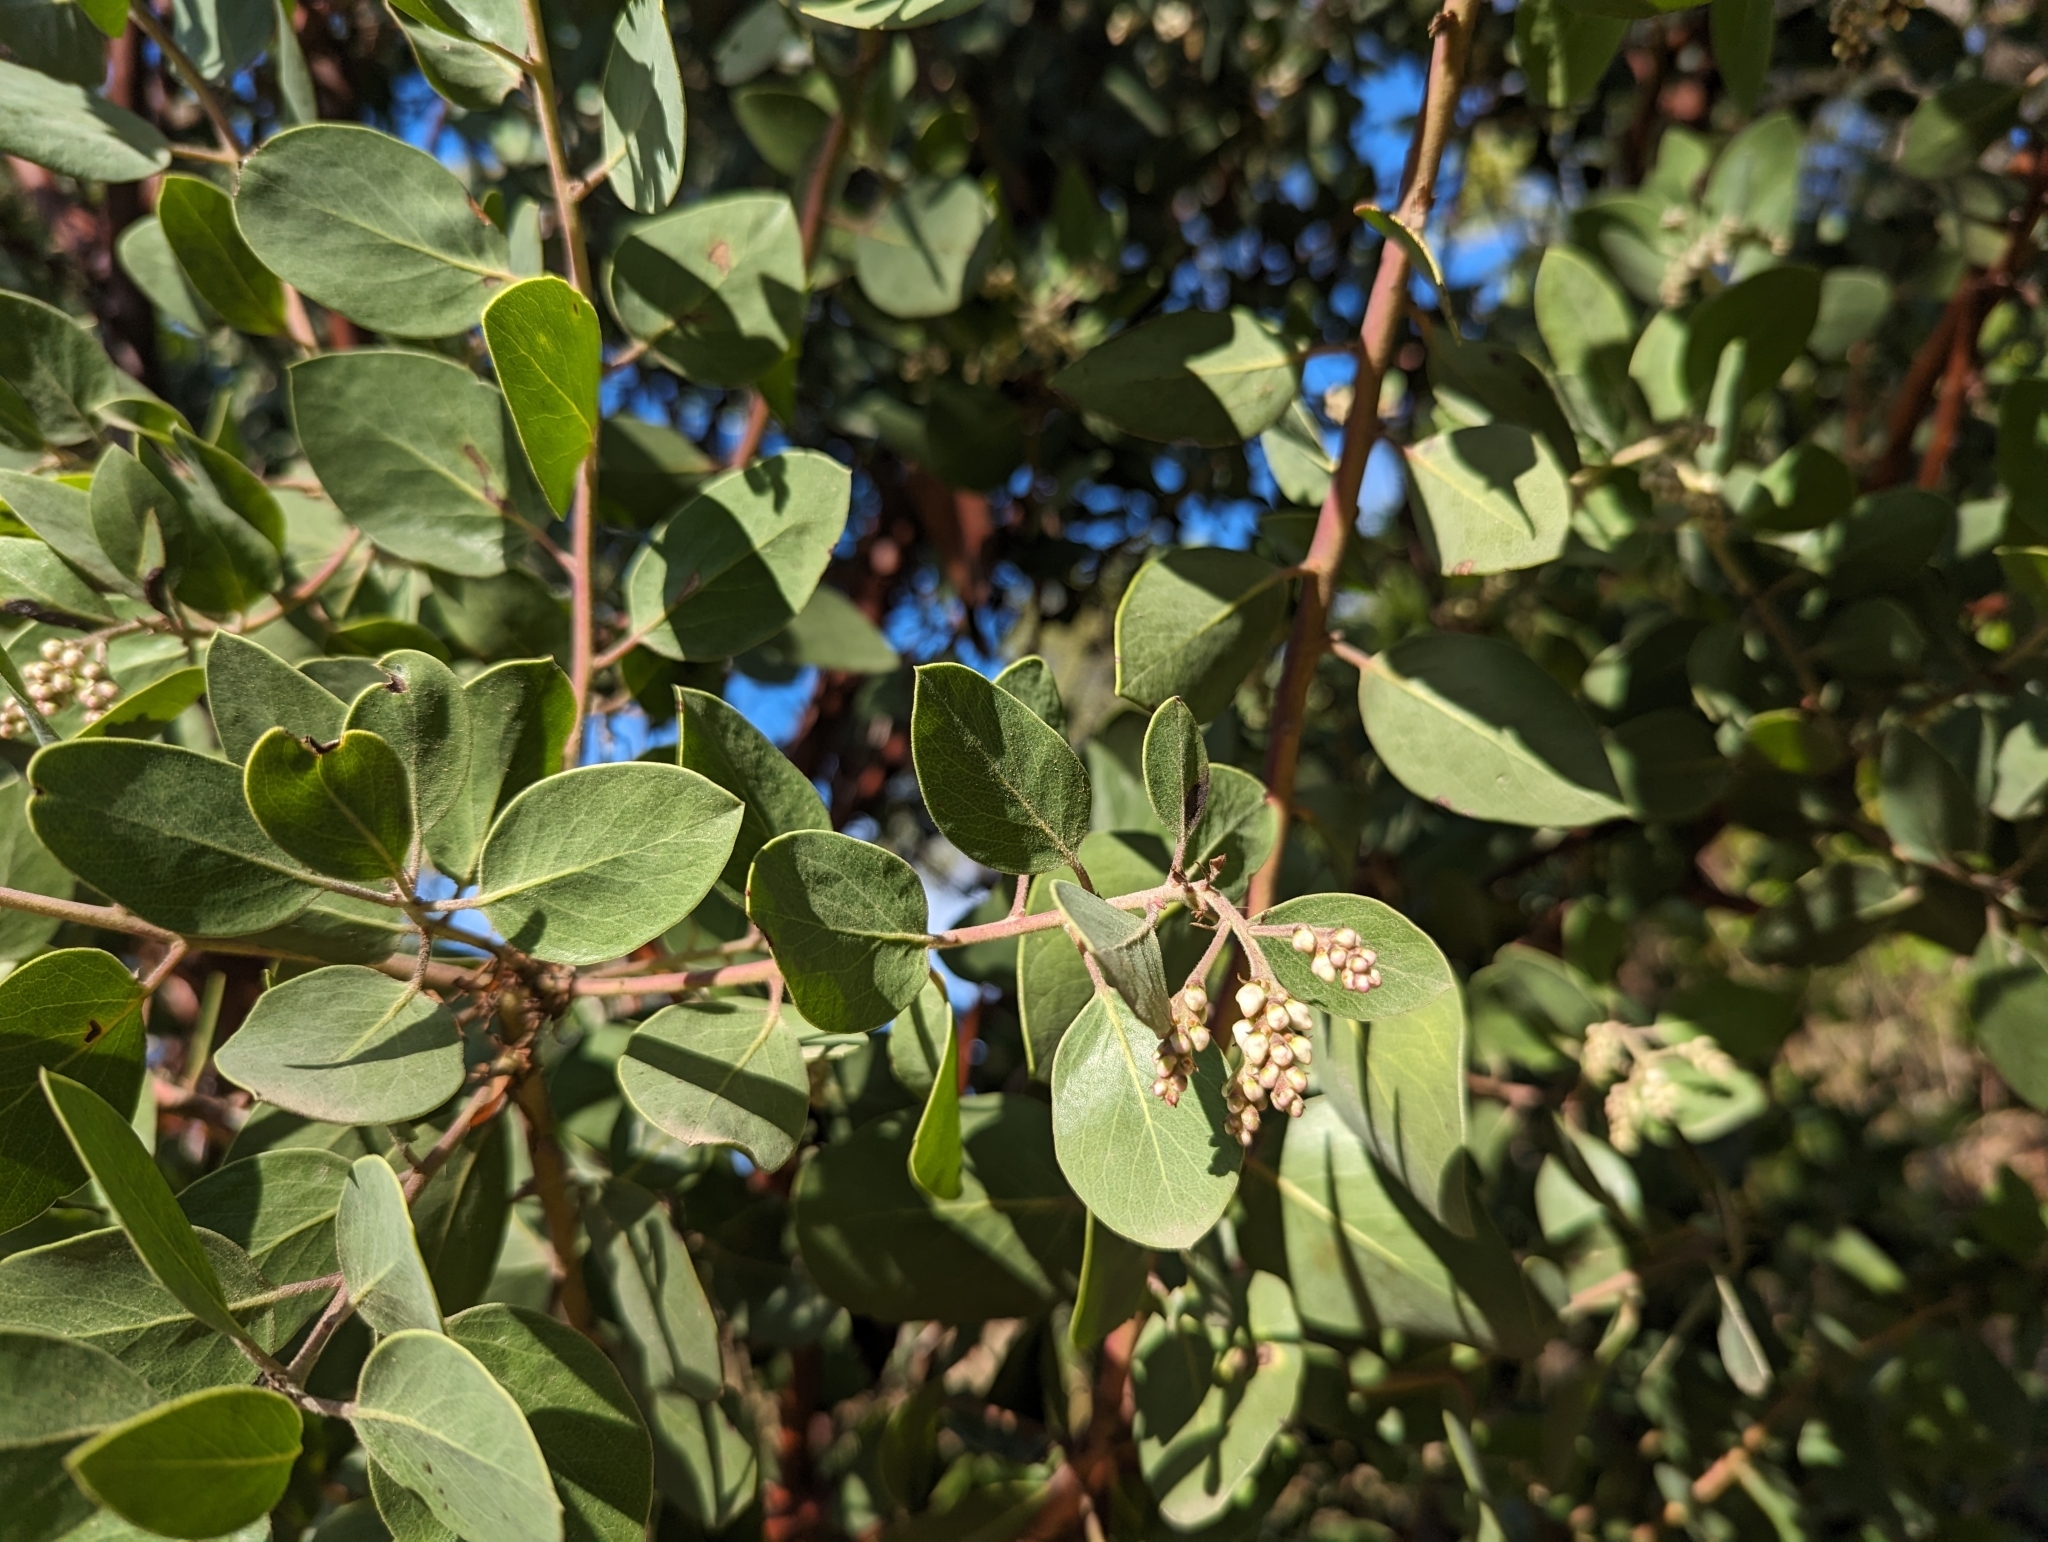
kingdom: Plantae
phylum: Tracheophyta
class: Magnoliopsida
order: Ericales
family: Ericaceae
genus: Arctostaphylos
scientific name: Arctostaphylos manzanita
